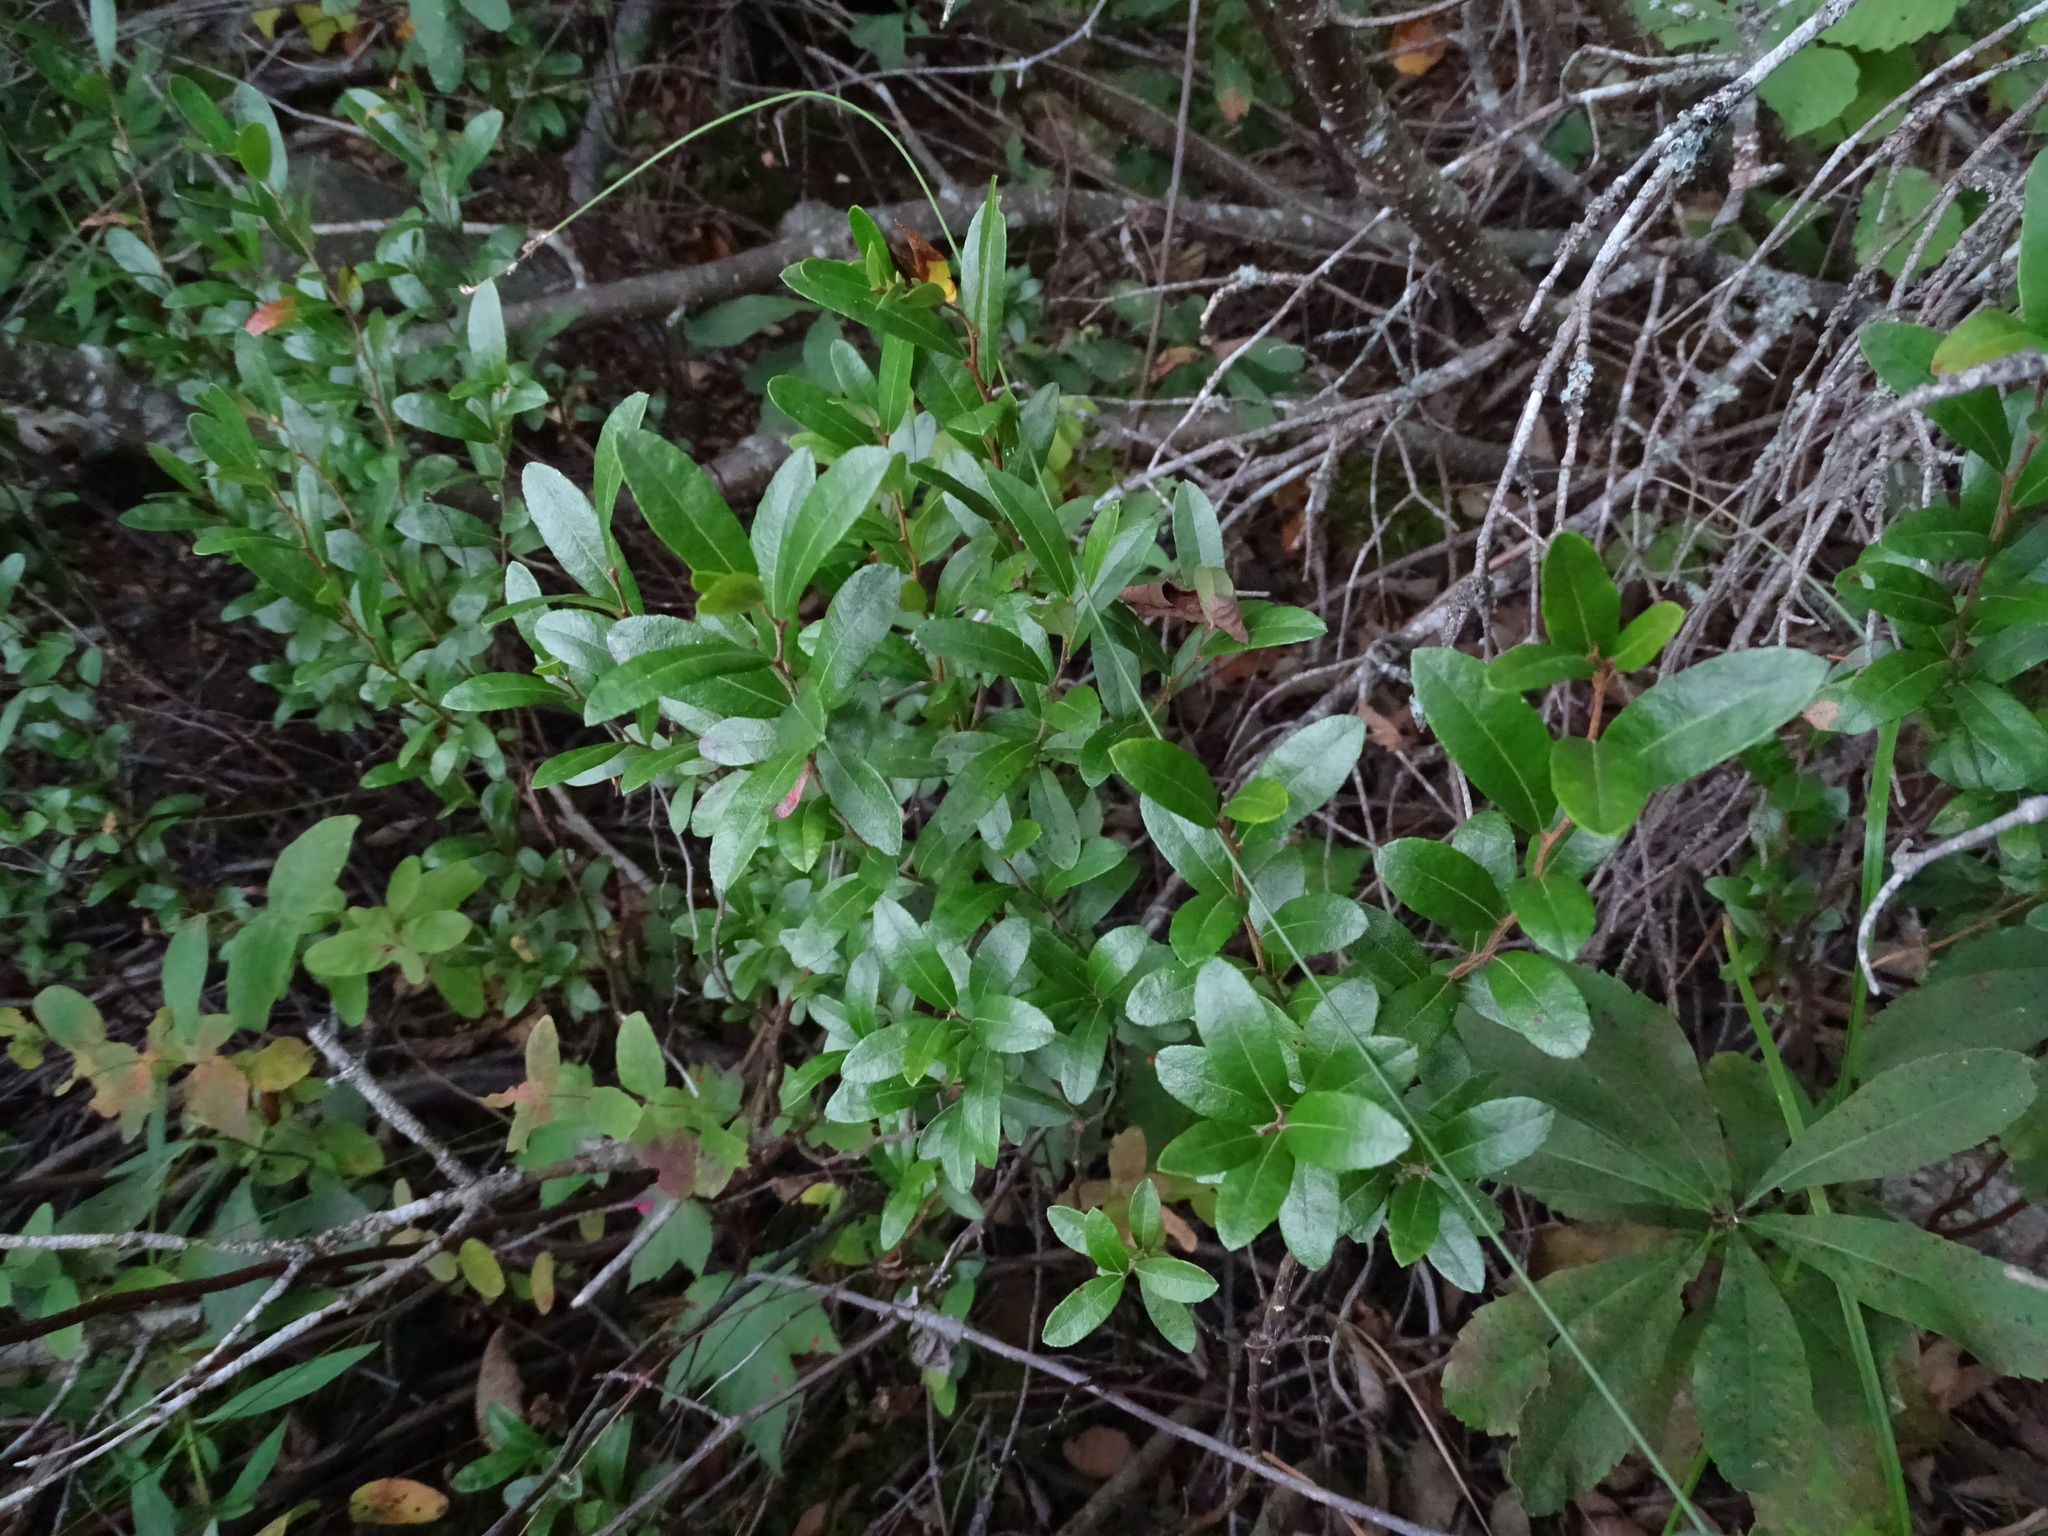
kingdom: Plantae
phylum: Tracheophyta
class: Magnoliopsida
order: Ericales
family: Ericaceae
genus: Chamaedaphne
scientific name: Chamaedaphne calyculata
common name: Leatherleaf
